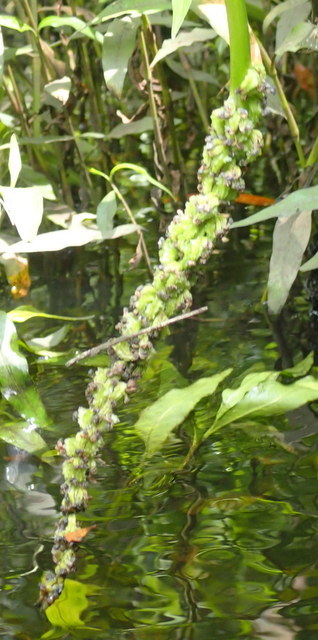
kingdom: Plantae
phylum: Tracheophyta
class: Liliopsida
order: Commelinales
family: Pontederiaceae
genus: Pontederia
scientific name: Pontederia cordata
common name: Pickerelweed
